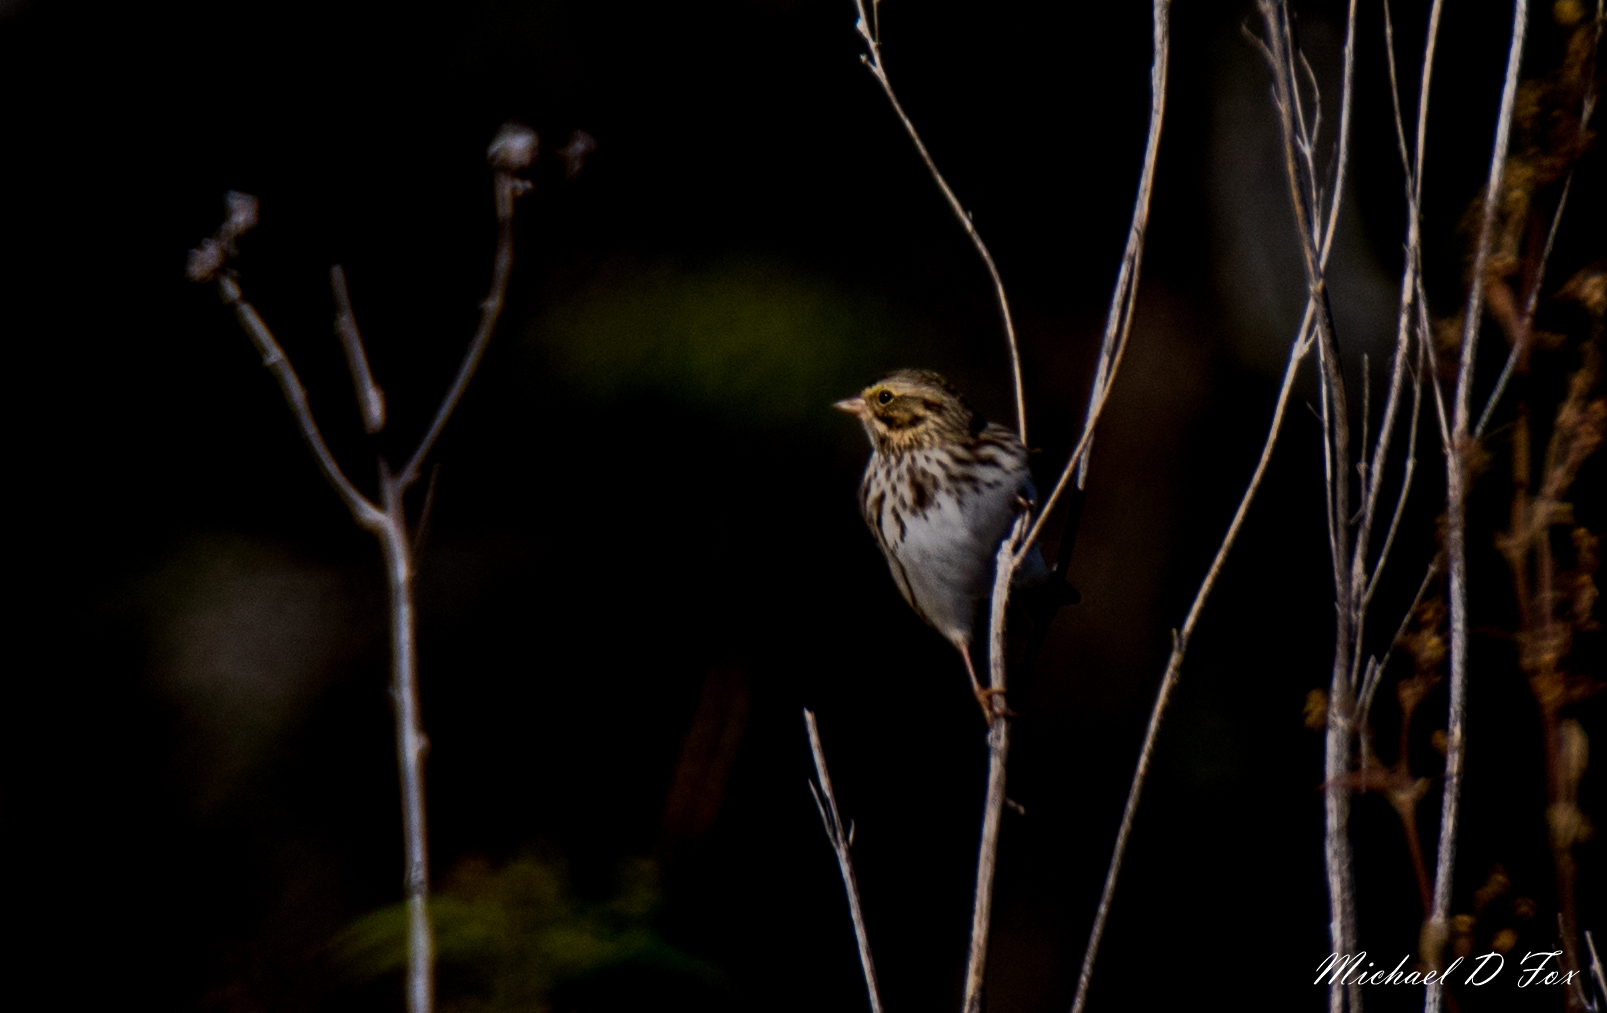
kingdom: Animalia
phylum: Chordata
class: Aves
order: Passeriformes
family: Passerellidae
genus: Passerculus
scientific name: Passerculus sandwichensis
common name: Savannah sparrow
